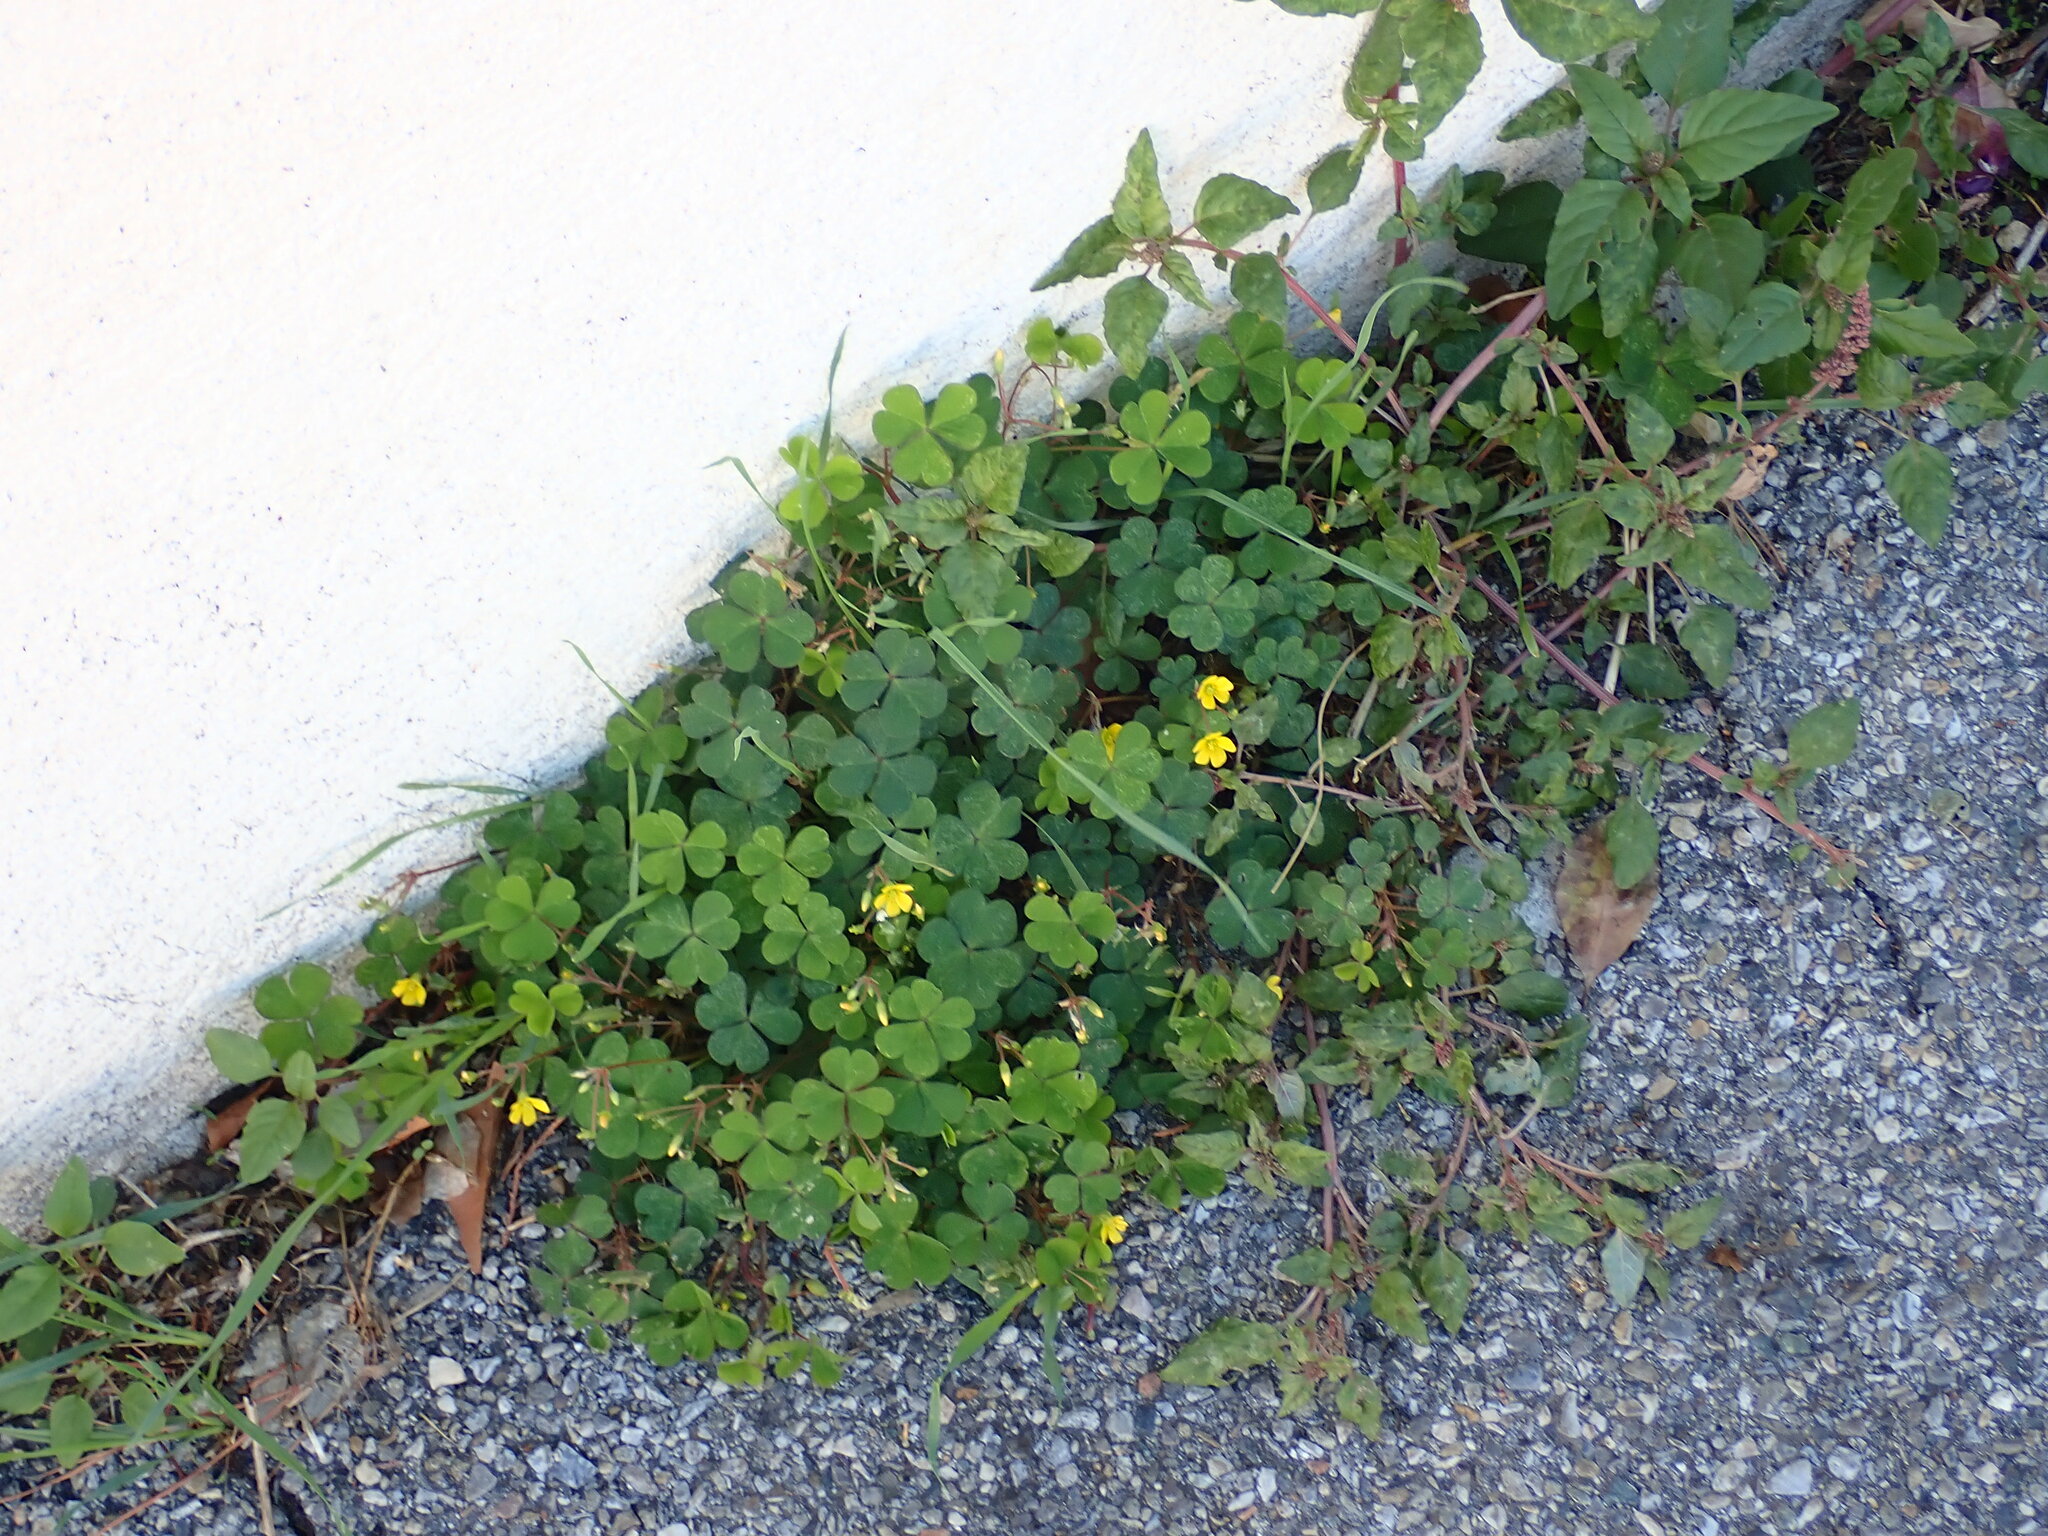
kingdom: Plantae
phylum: Tracheophyta
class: Magnoliopsida
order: Oxalidales
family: Oxalidaceae
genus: Oxalis
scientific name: Oxalis corniculata
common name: Procumbent yellow-sorrel
